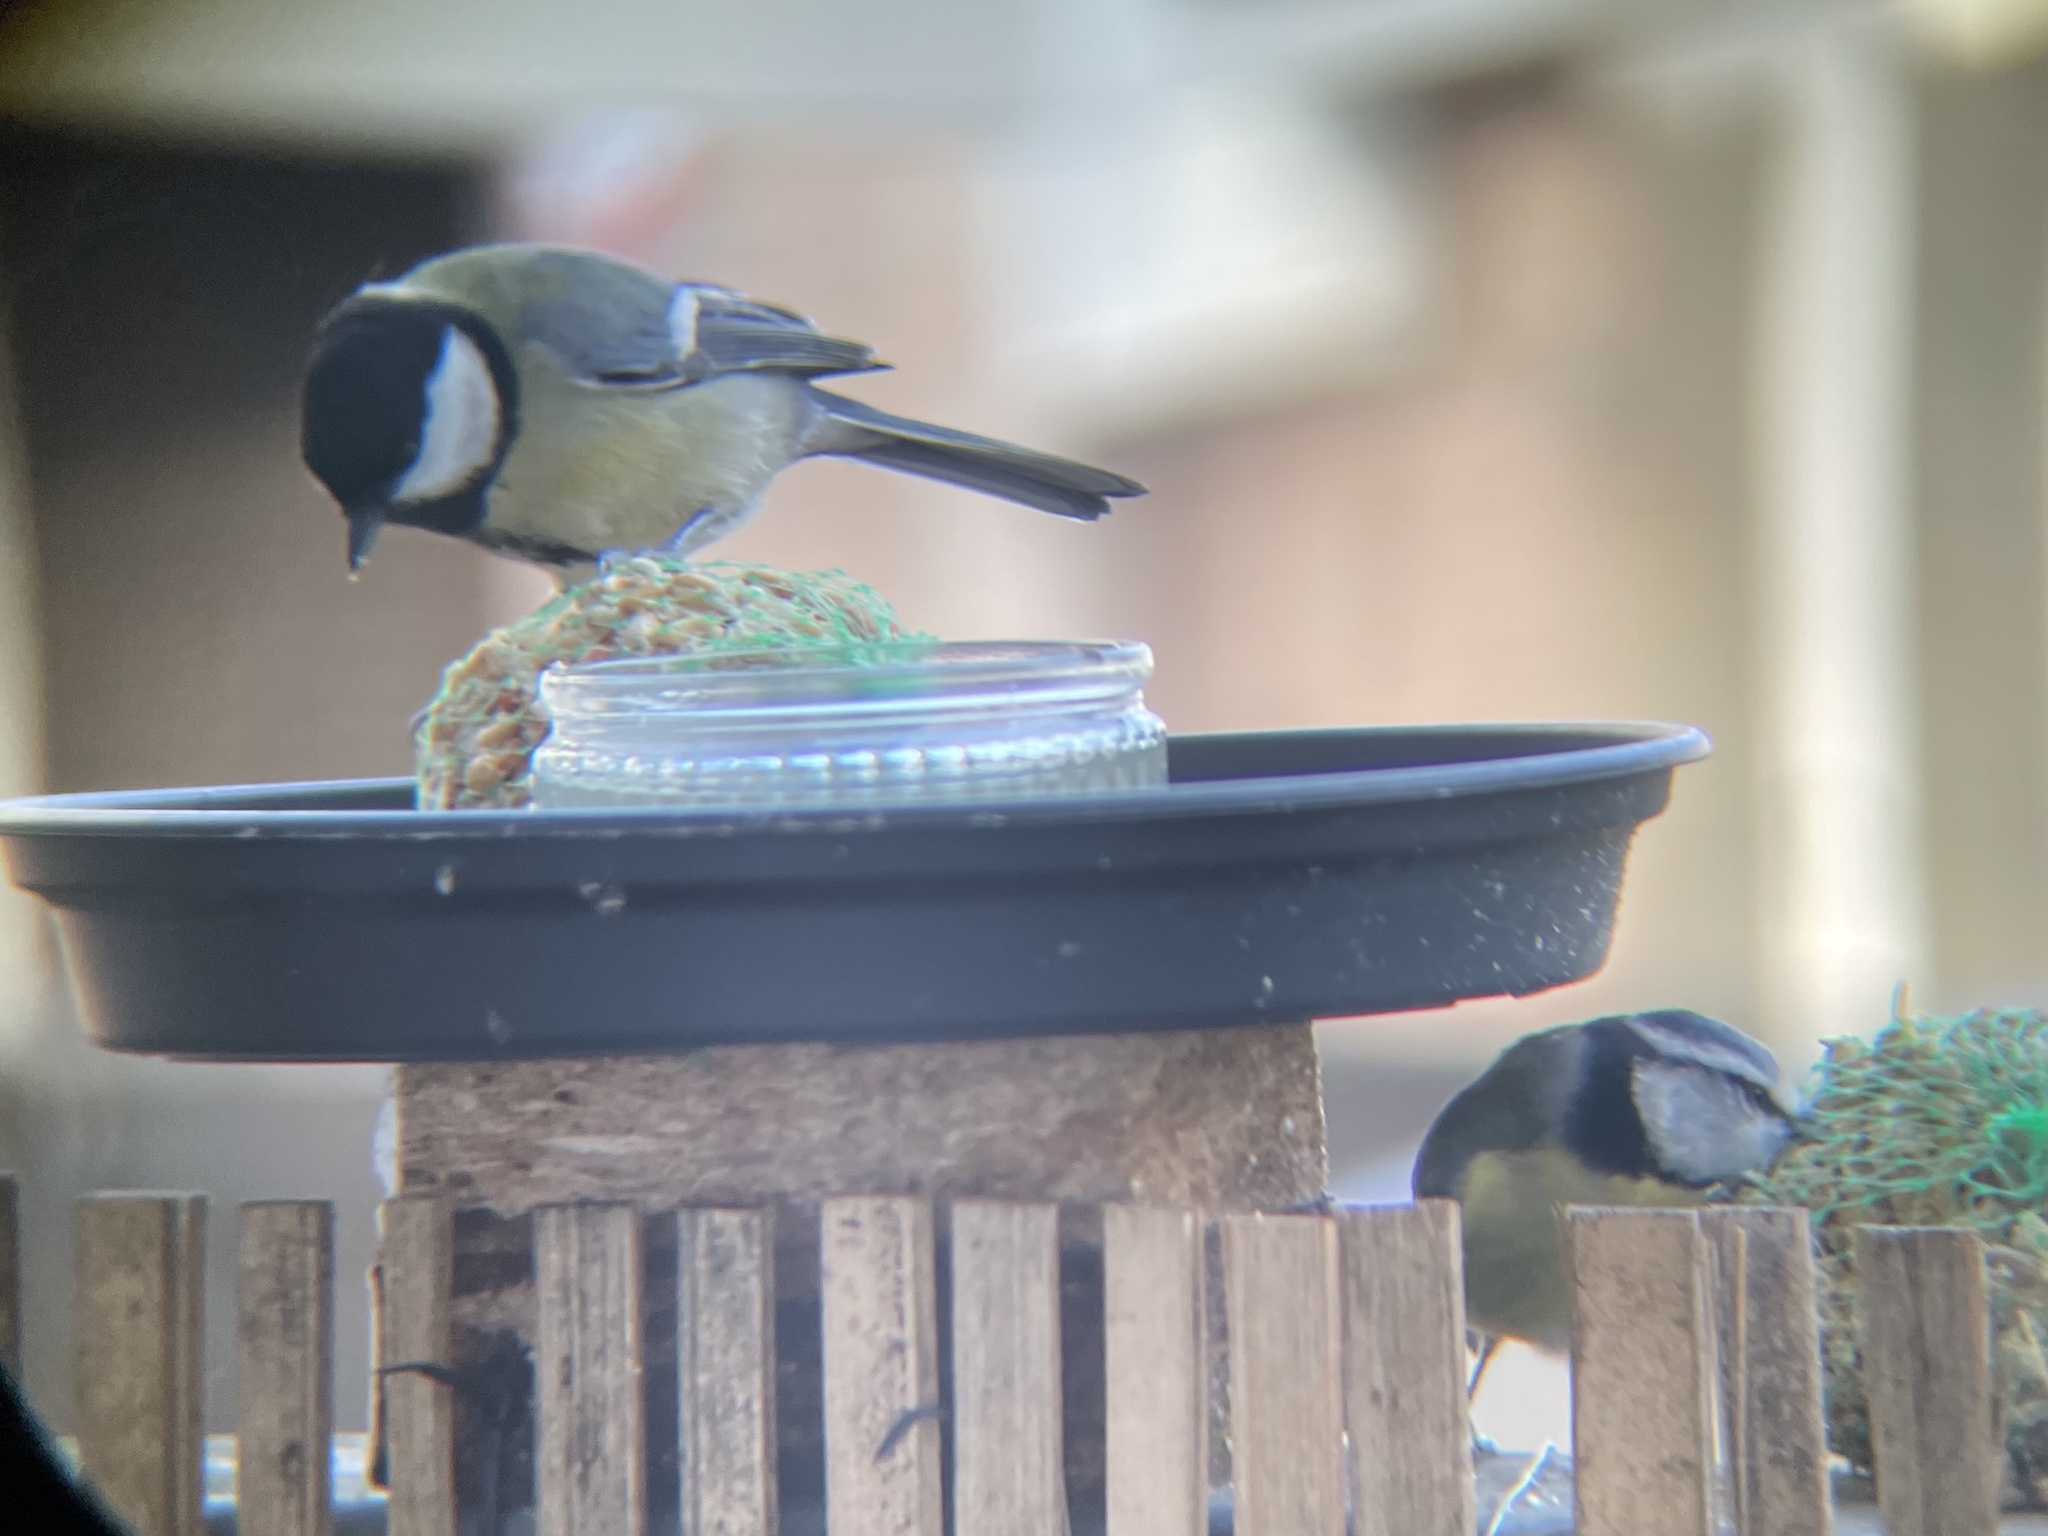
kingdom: Animalia
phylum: Chordata
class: Aves
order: Passeriformes
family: Paridae
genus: Parus
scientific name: Parus major
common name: Great tit
